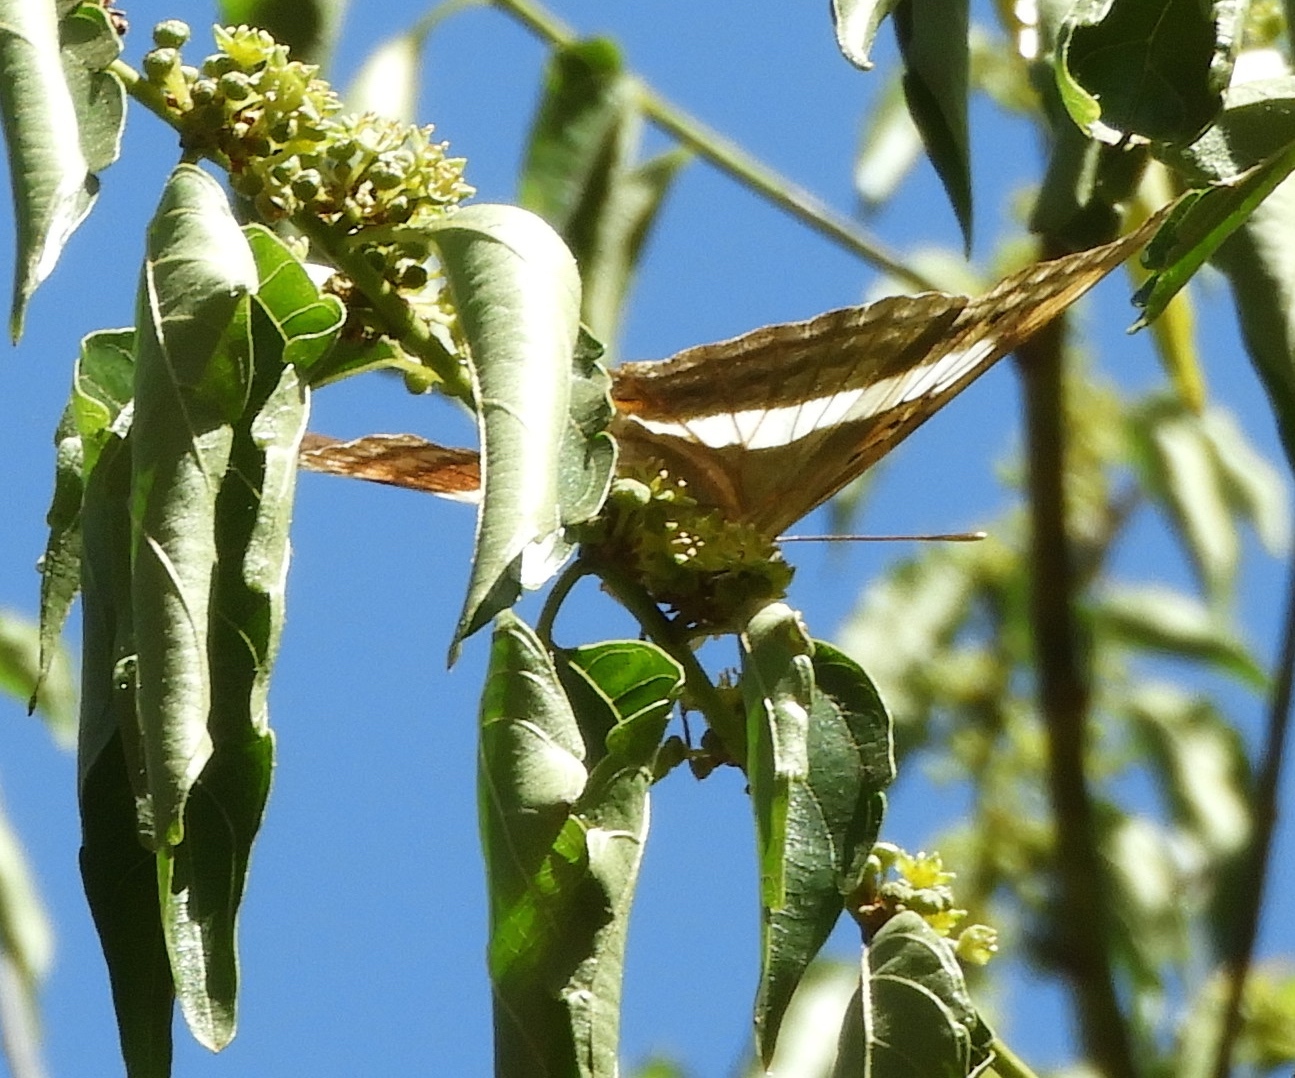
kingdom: Animalia
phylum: Arthropoda
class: Insecta
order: Lepidoptera
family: Nymphalidae
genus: Doxocopa
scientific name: Doxocopa laure
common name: Silver emperor
